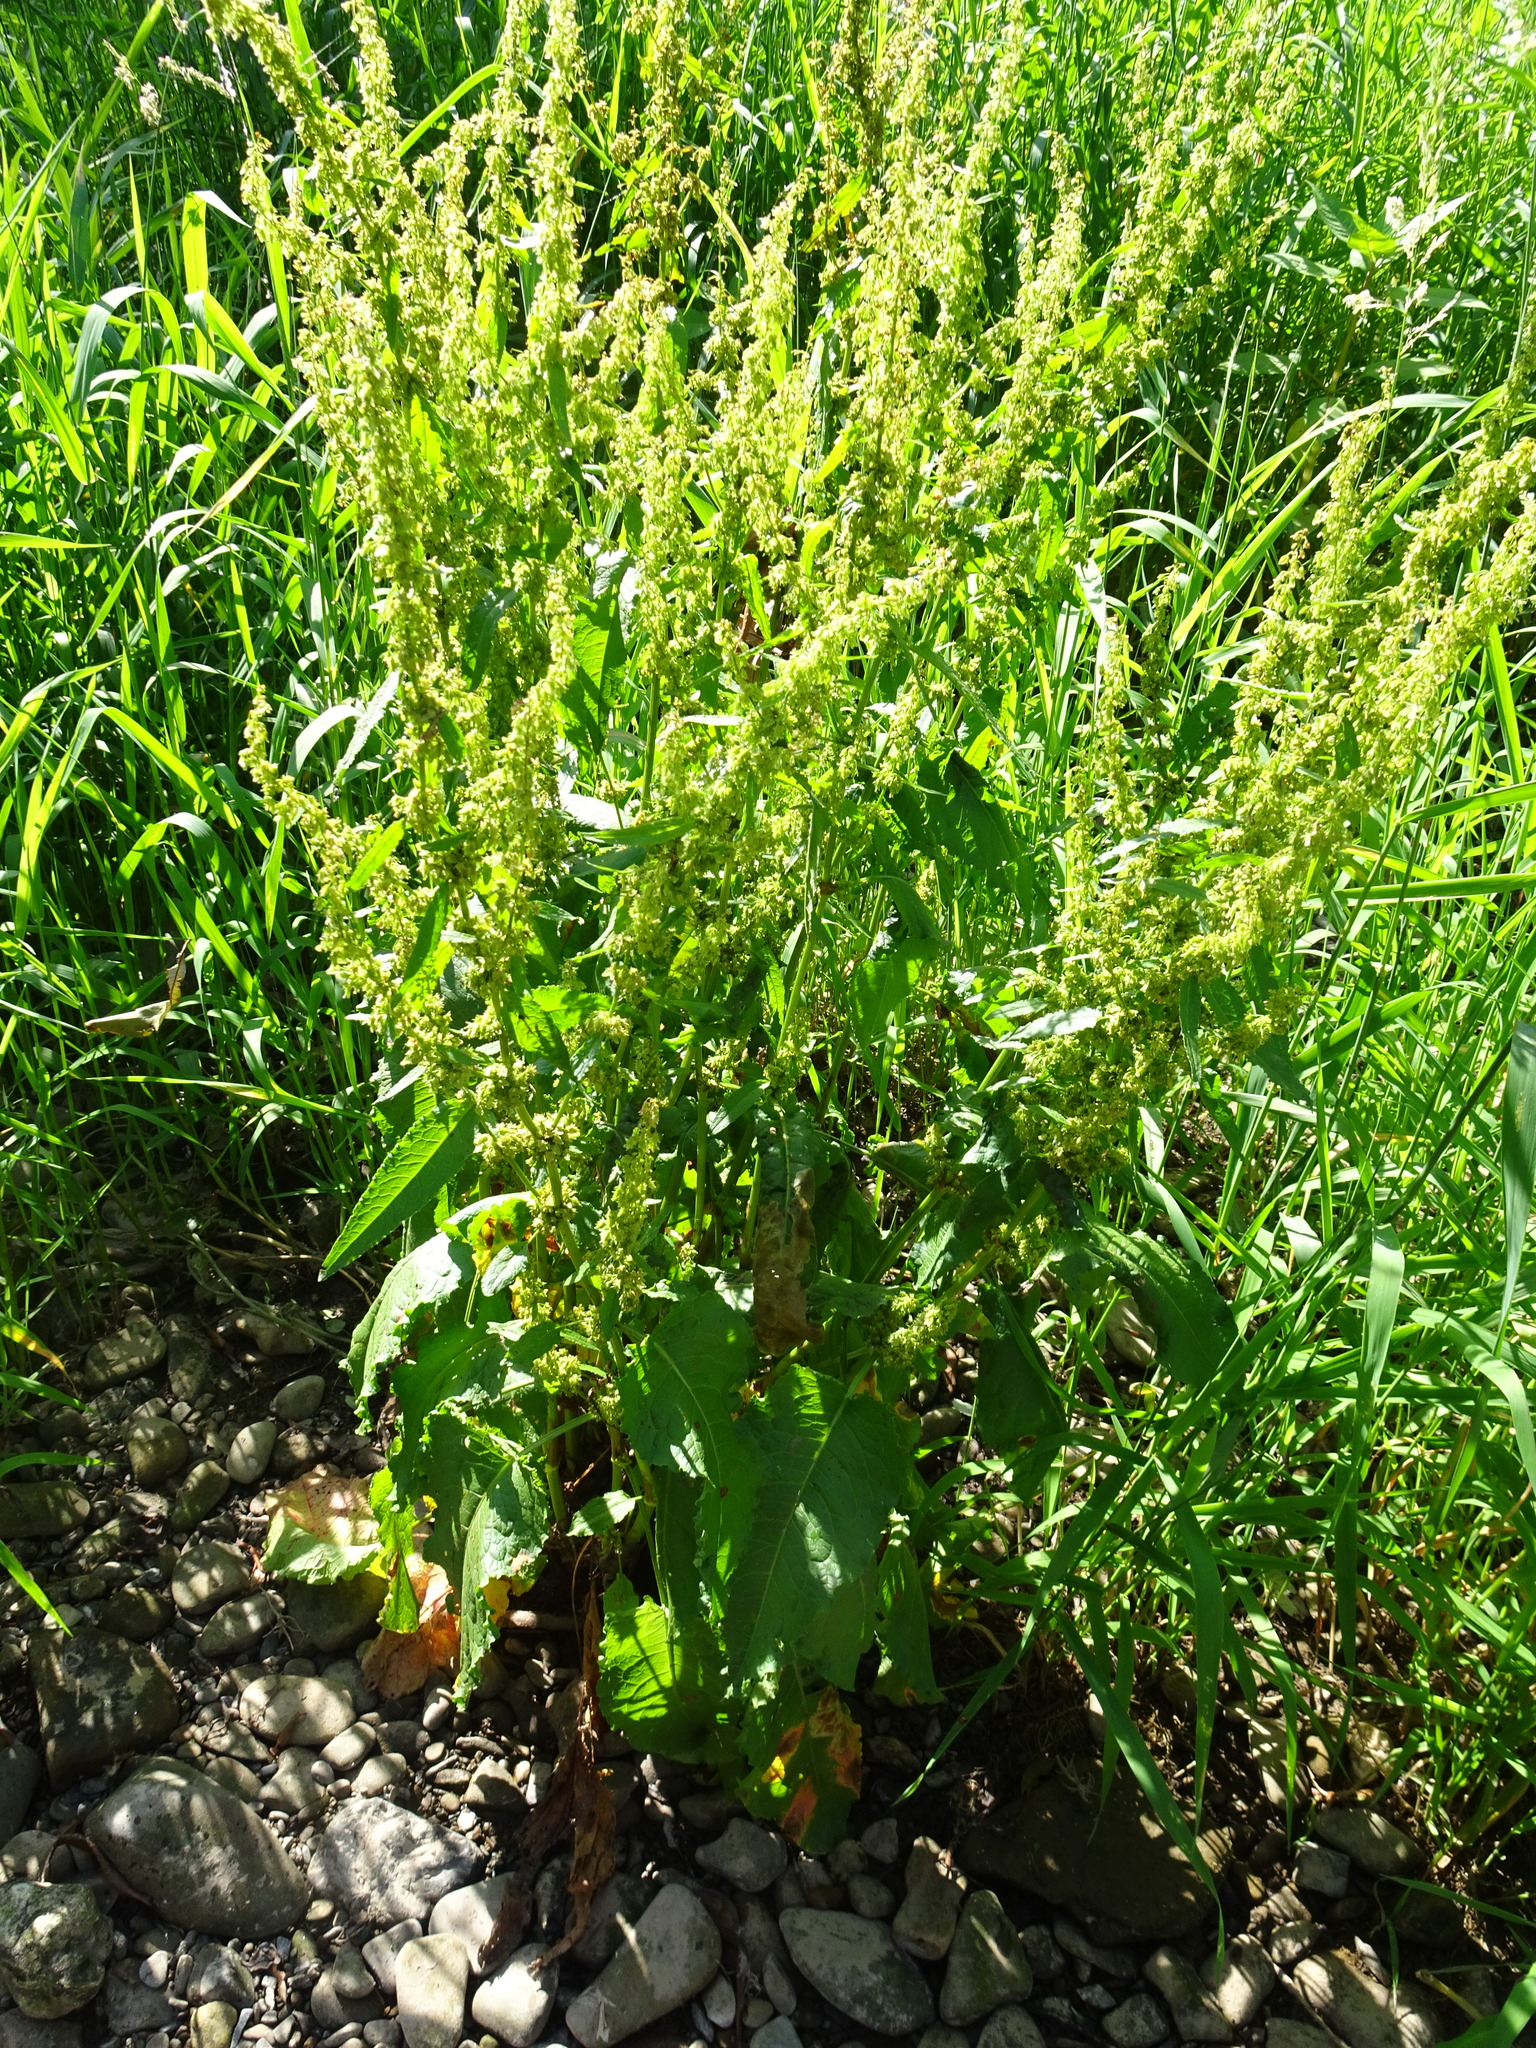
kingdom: Plantae
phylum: Tracheophyta
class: Magnoliopsida
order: Caryophyllales
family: Polygonaceae
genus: Rumex
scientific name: Rumex obtusifolius
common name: Bitter dock
